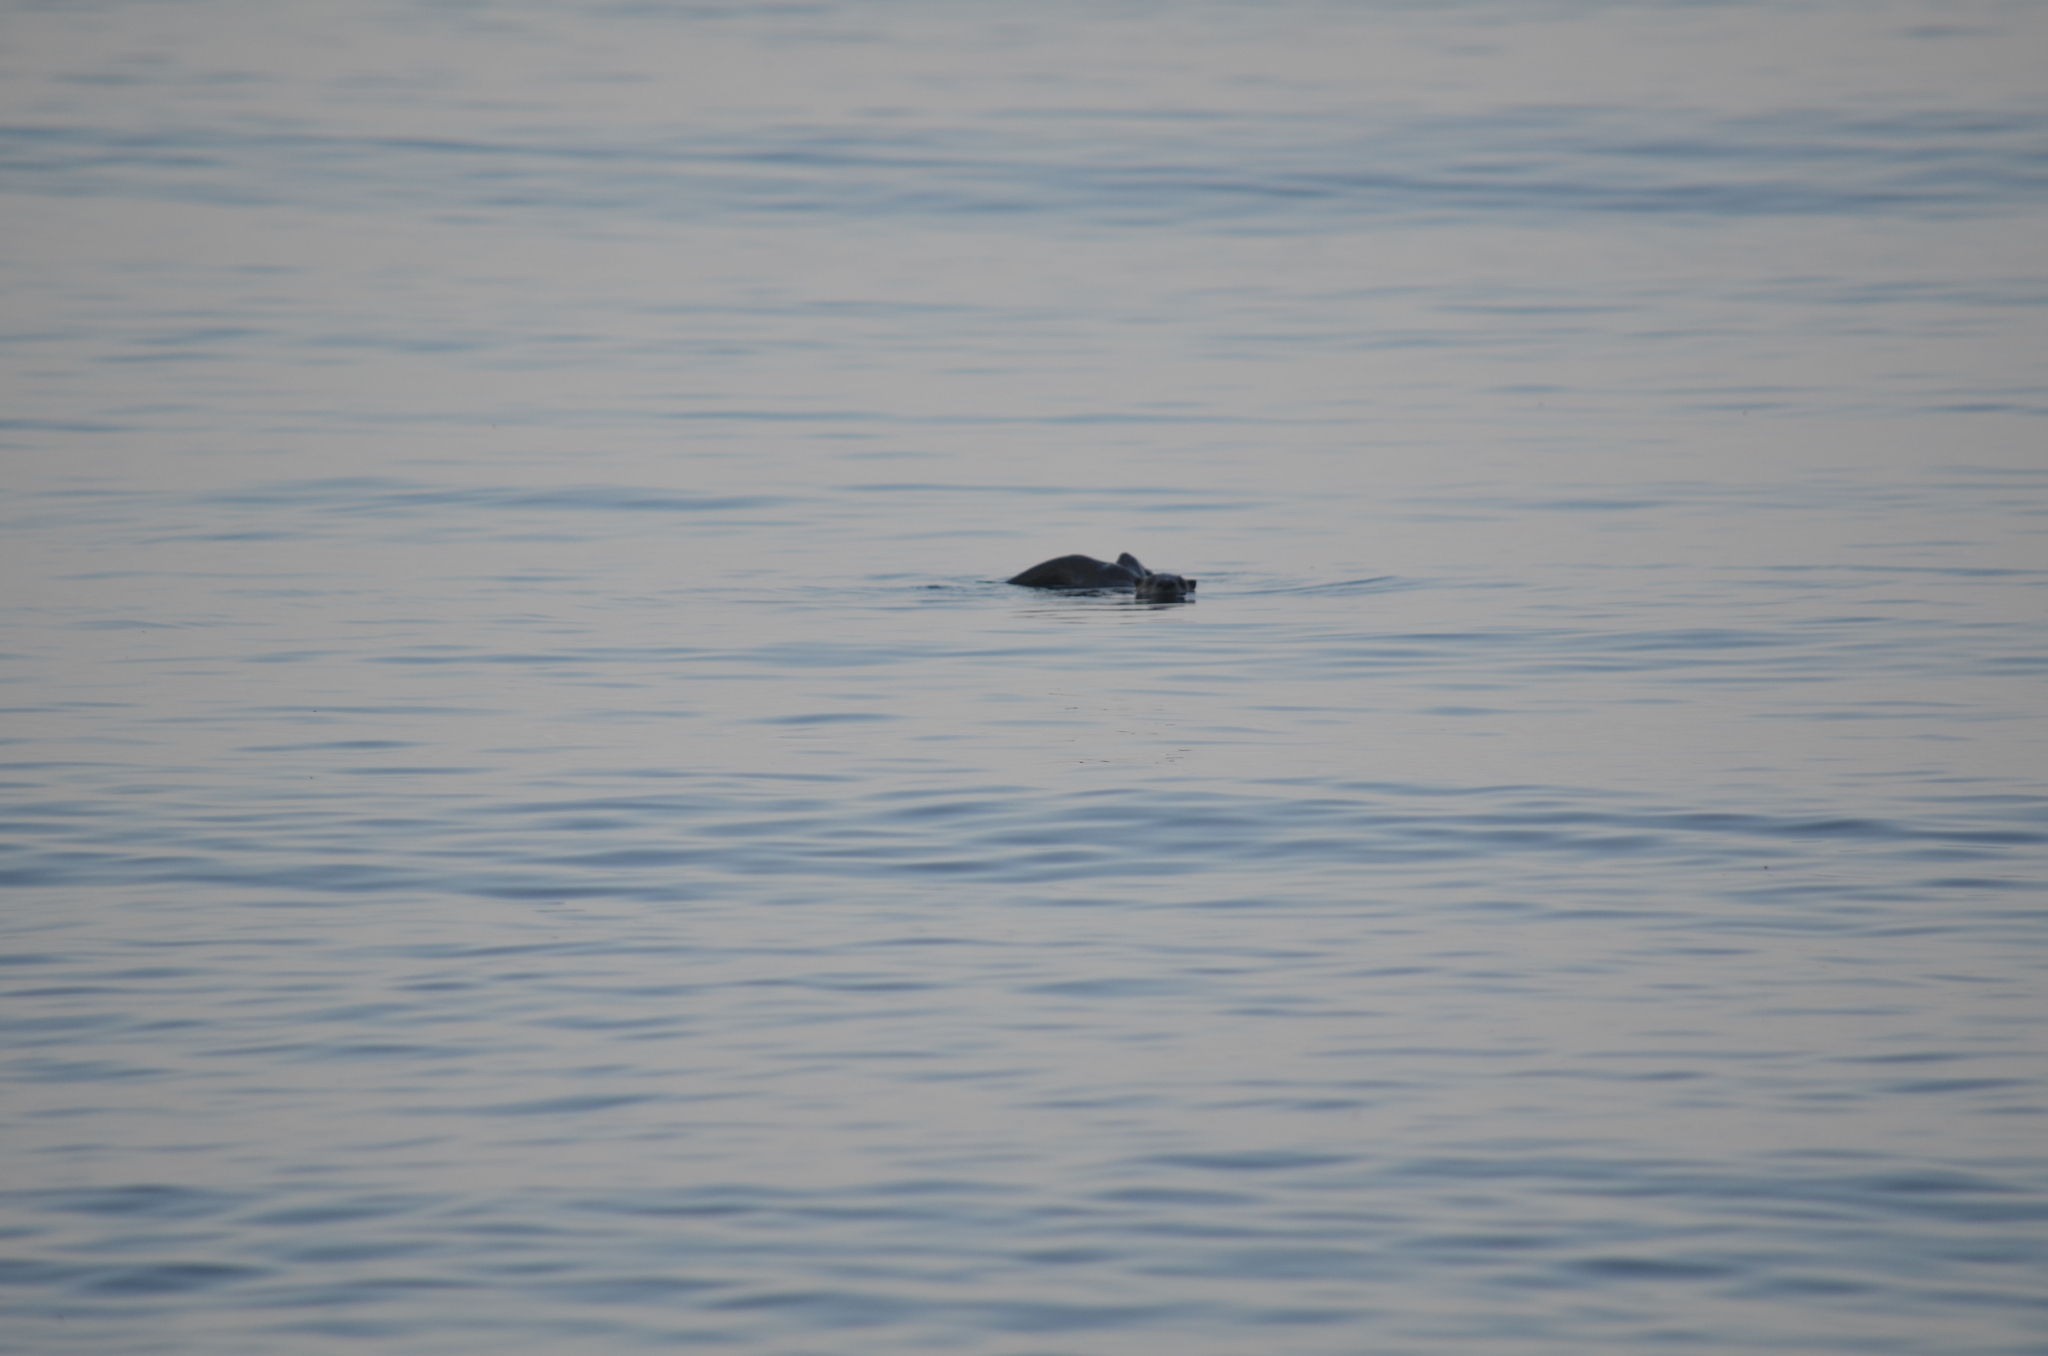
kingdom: Animalia
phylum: Chordata
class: Mammalia
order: Carnivora
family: Mustelidae
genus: Lontra
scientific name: Lontra canadensis
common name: North american river otter
